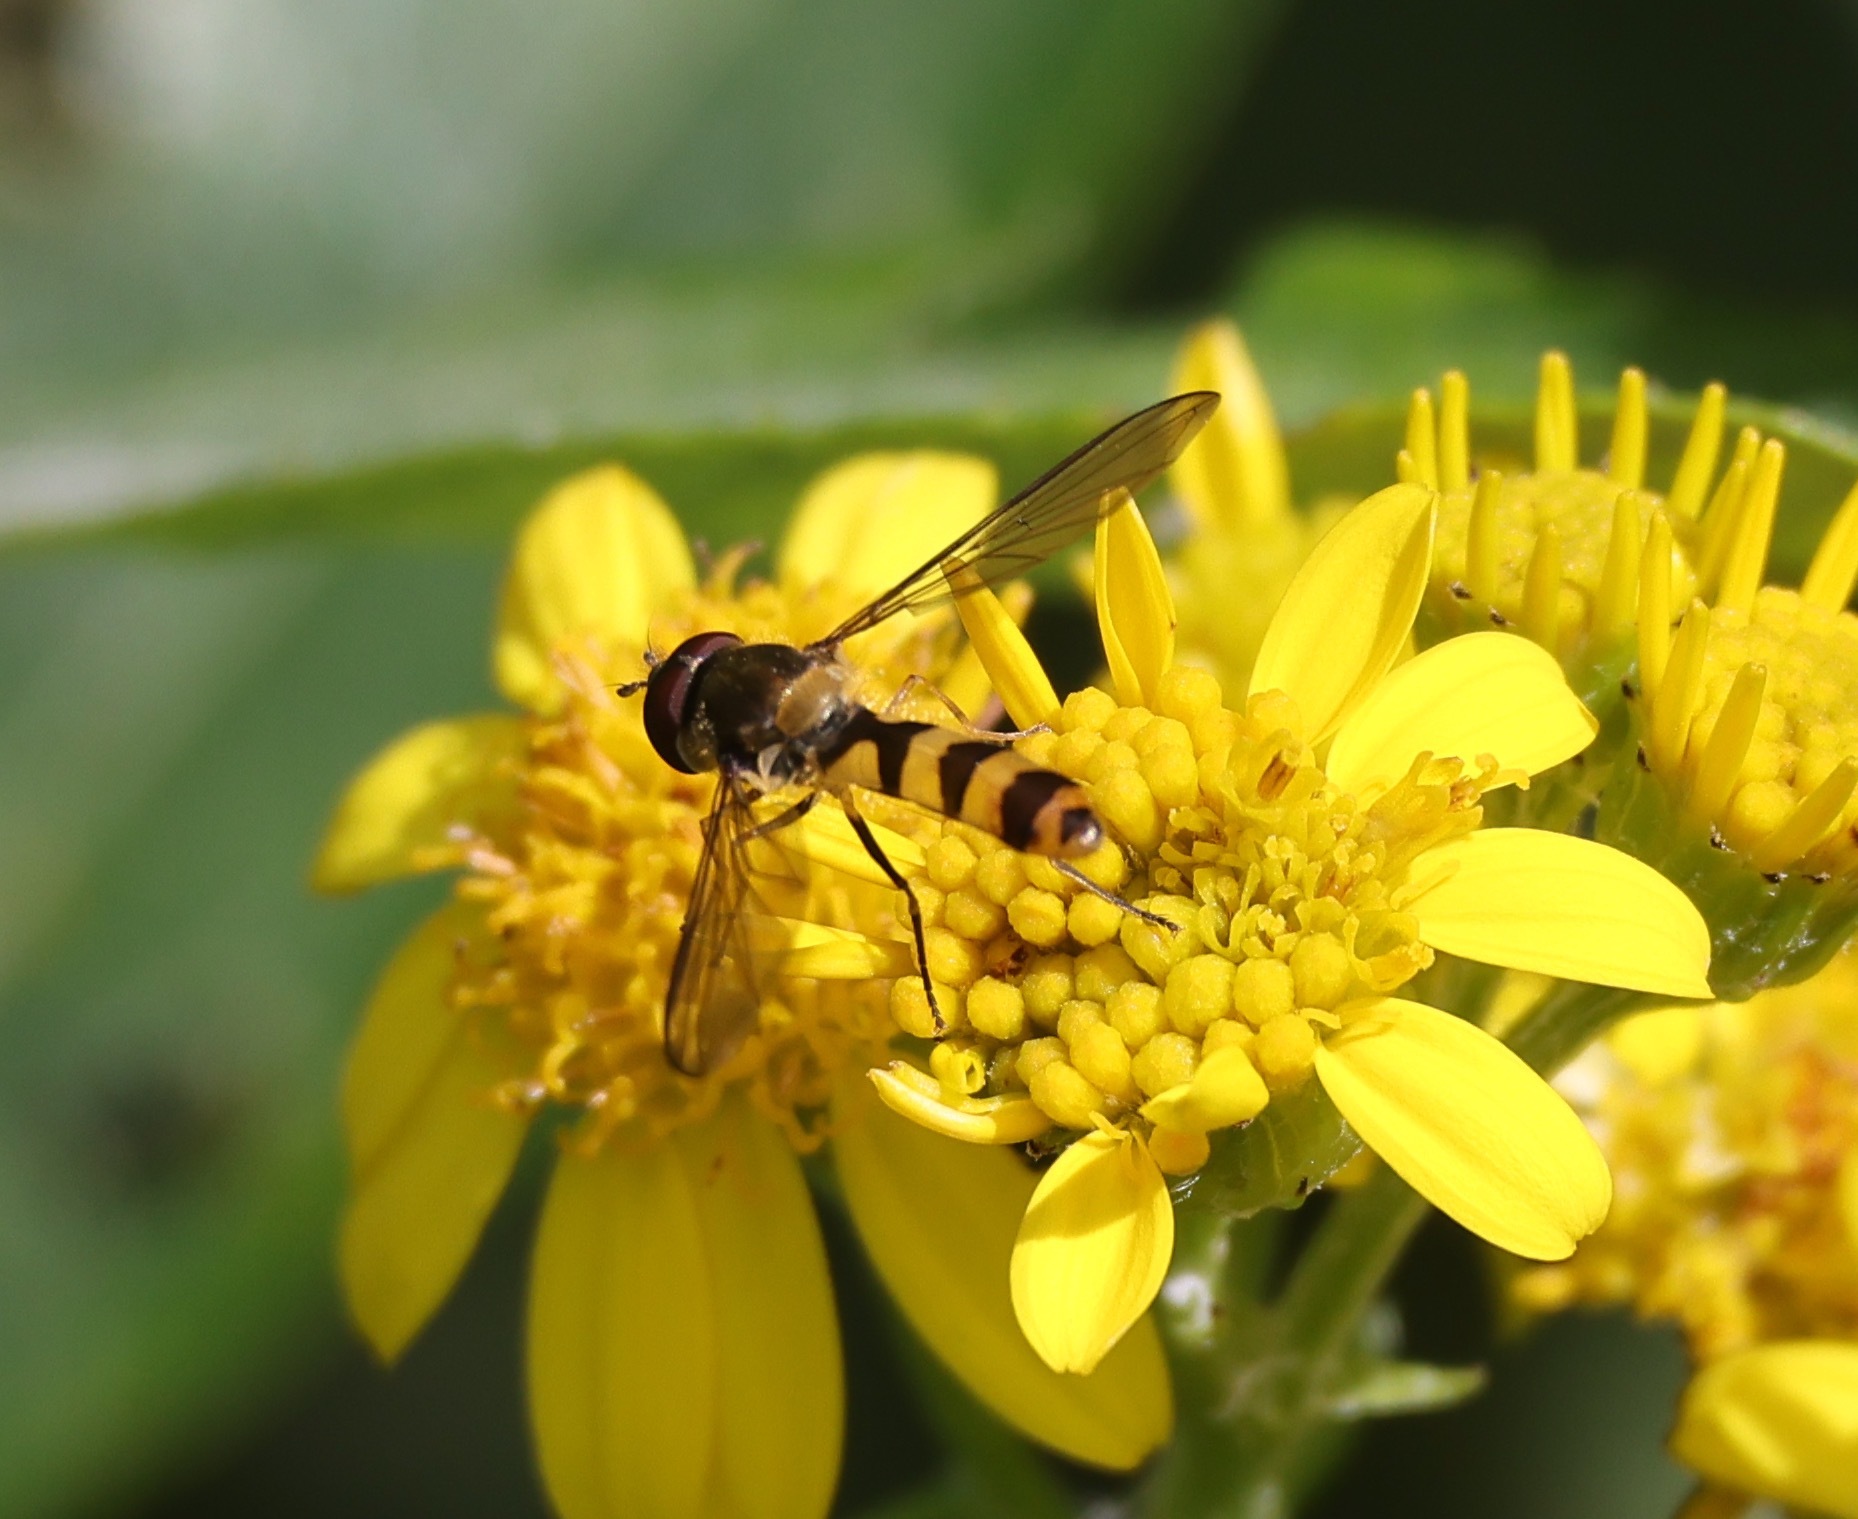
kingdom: Animalia
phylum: Arthropoda
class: Insecta
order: Diptera
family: Syrphidae
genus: Meliscaeva
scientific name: Meliscaeva cinctella
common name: American thintail fly
